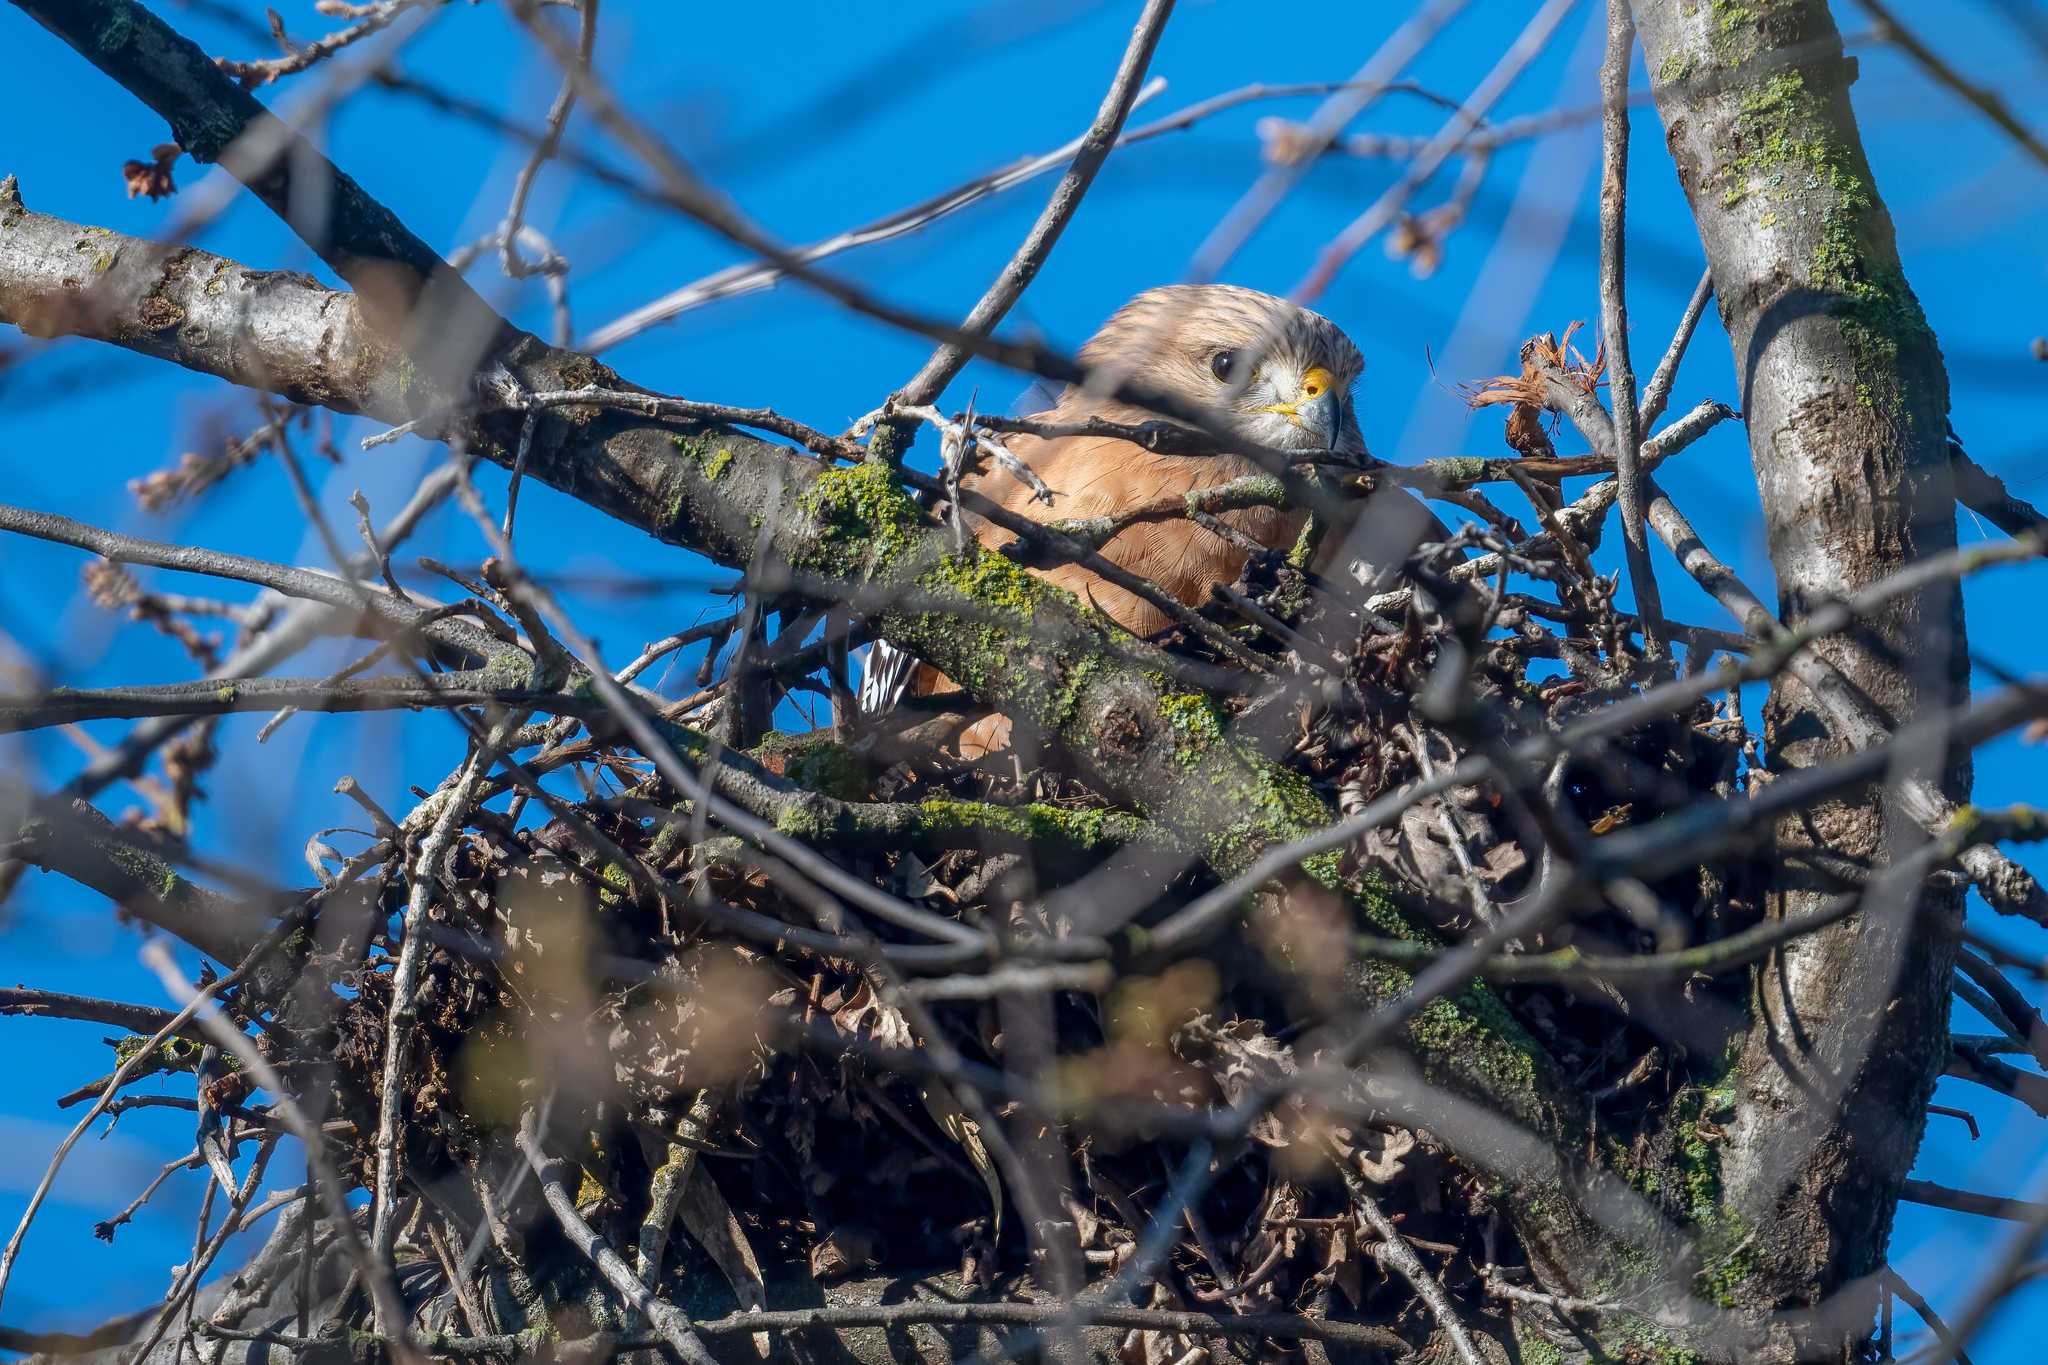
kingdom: Animalia
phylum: Chordata
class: Aves
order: Accipitriformes
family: Accipitridae
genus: Buteo
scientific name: Buteo lineatus
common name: Red-shouldered hawk
